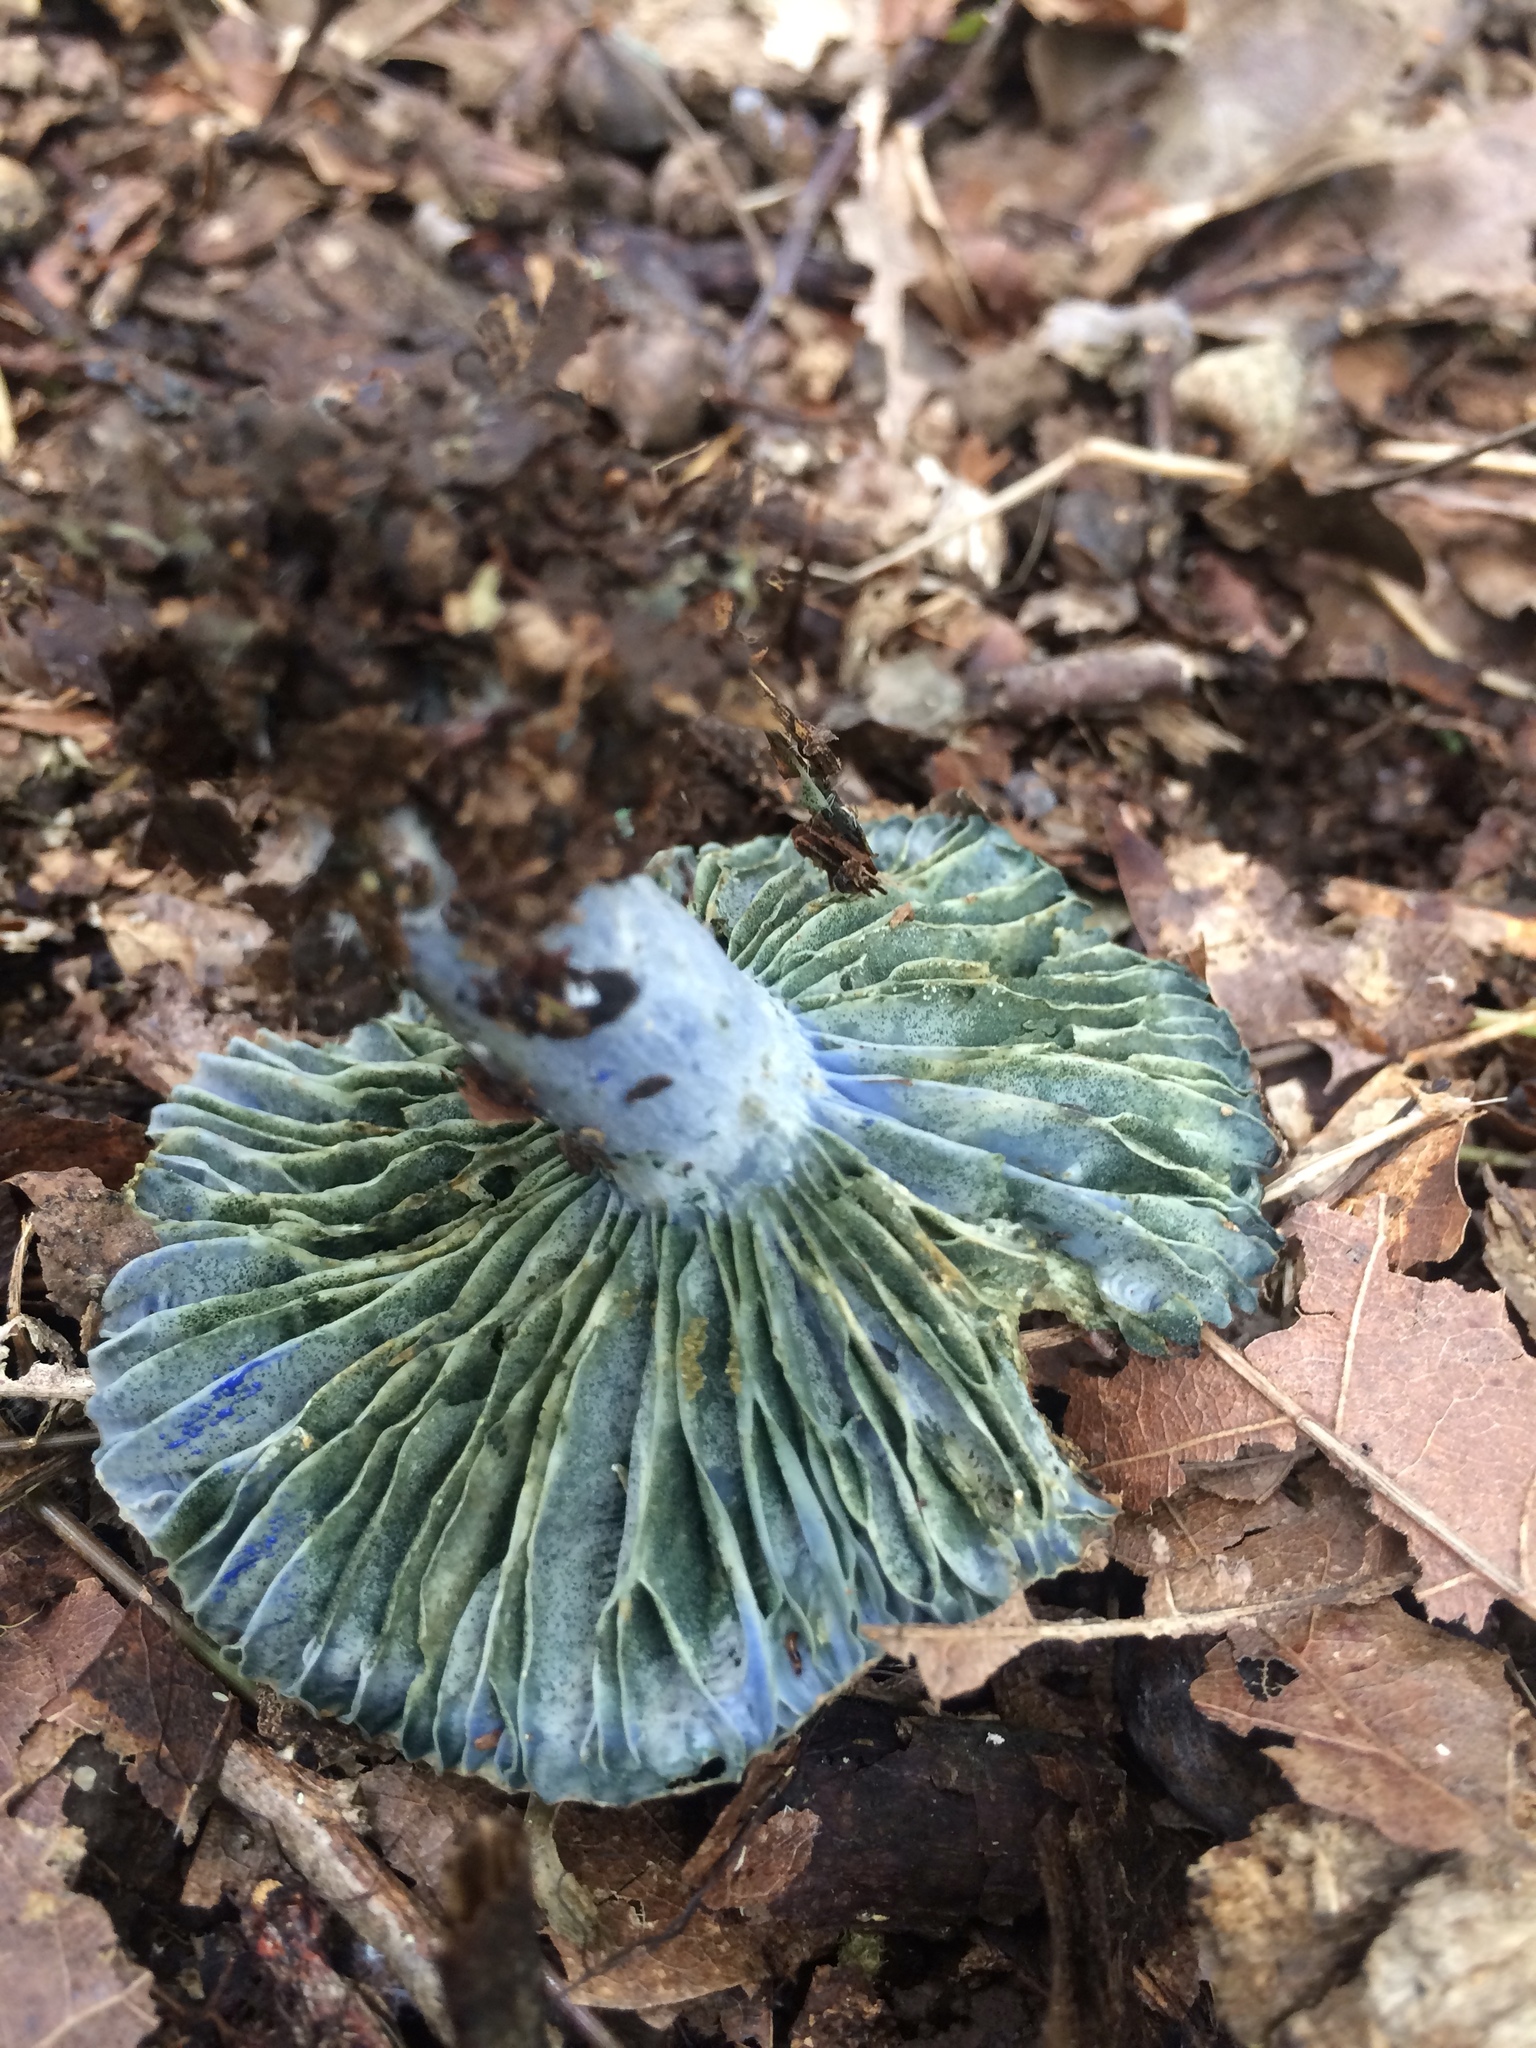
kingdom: Fungi
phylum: Basidiomycota
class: Agaricomycetes
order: Russulales
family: Russulaceae
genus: Lactarius
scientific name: Lactarius indigo
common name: Indigo milk cap
